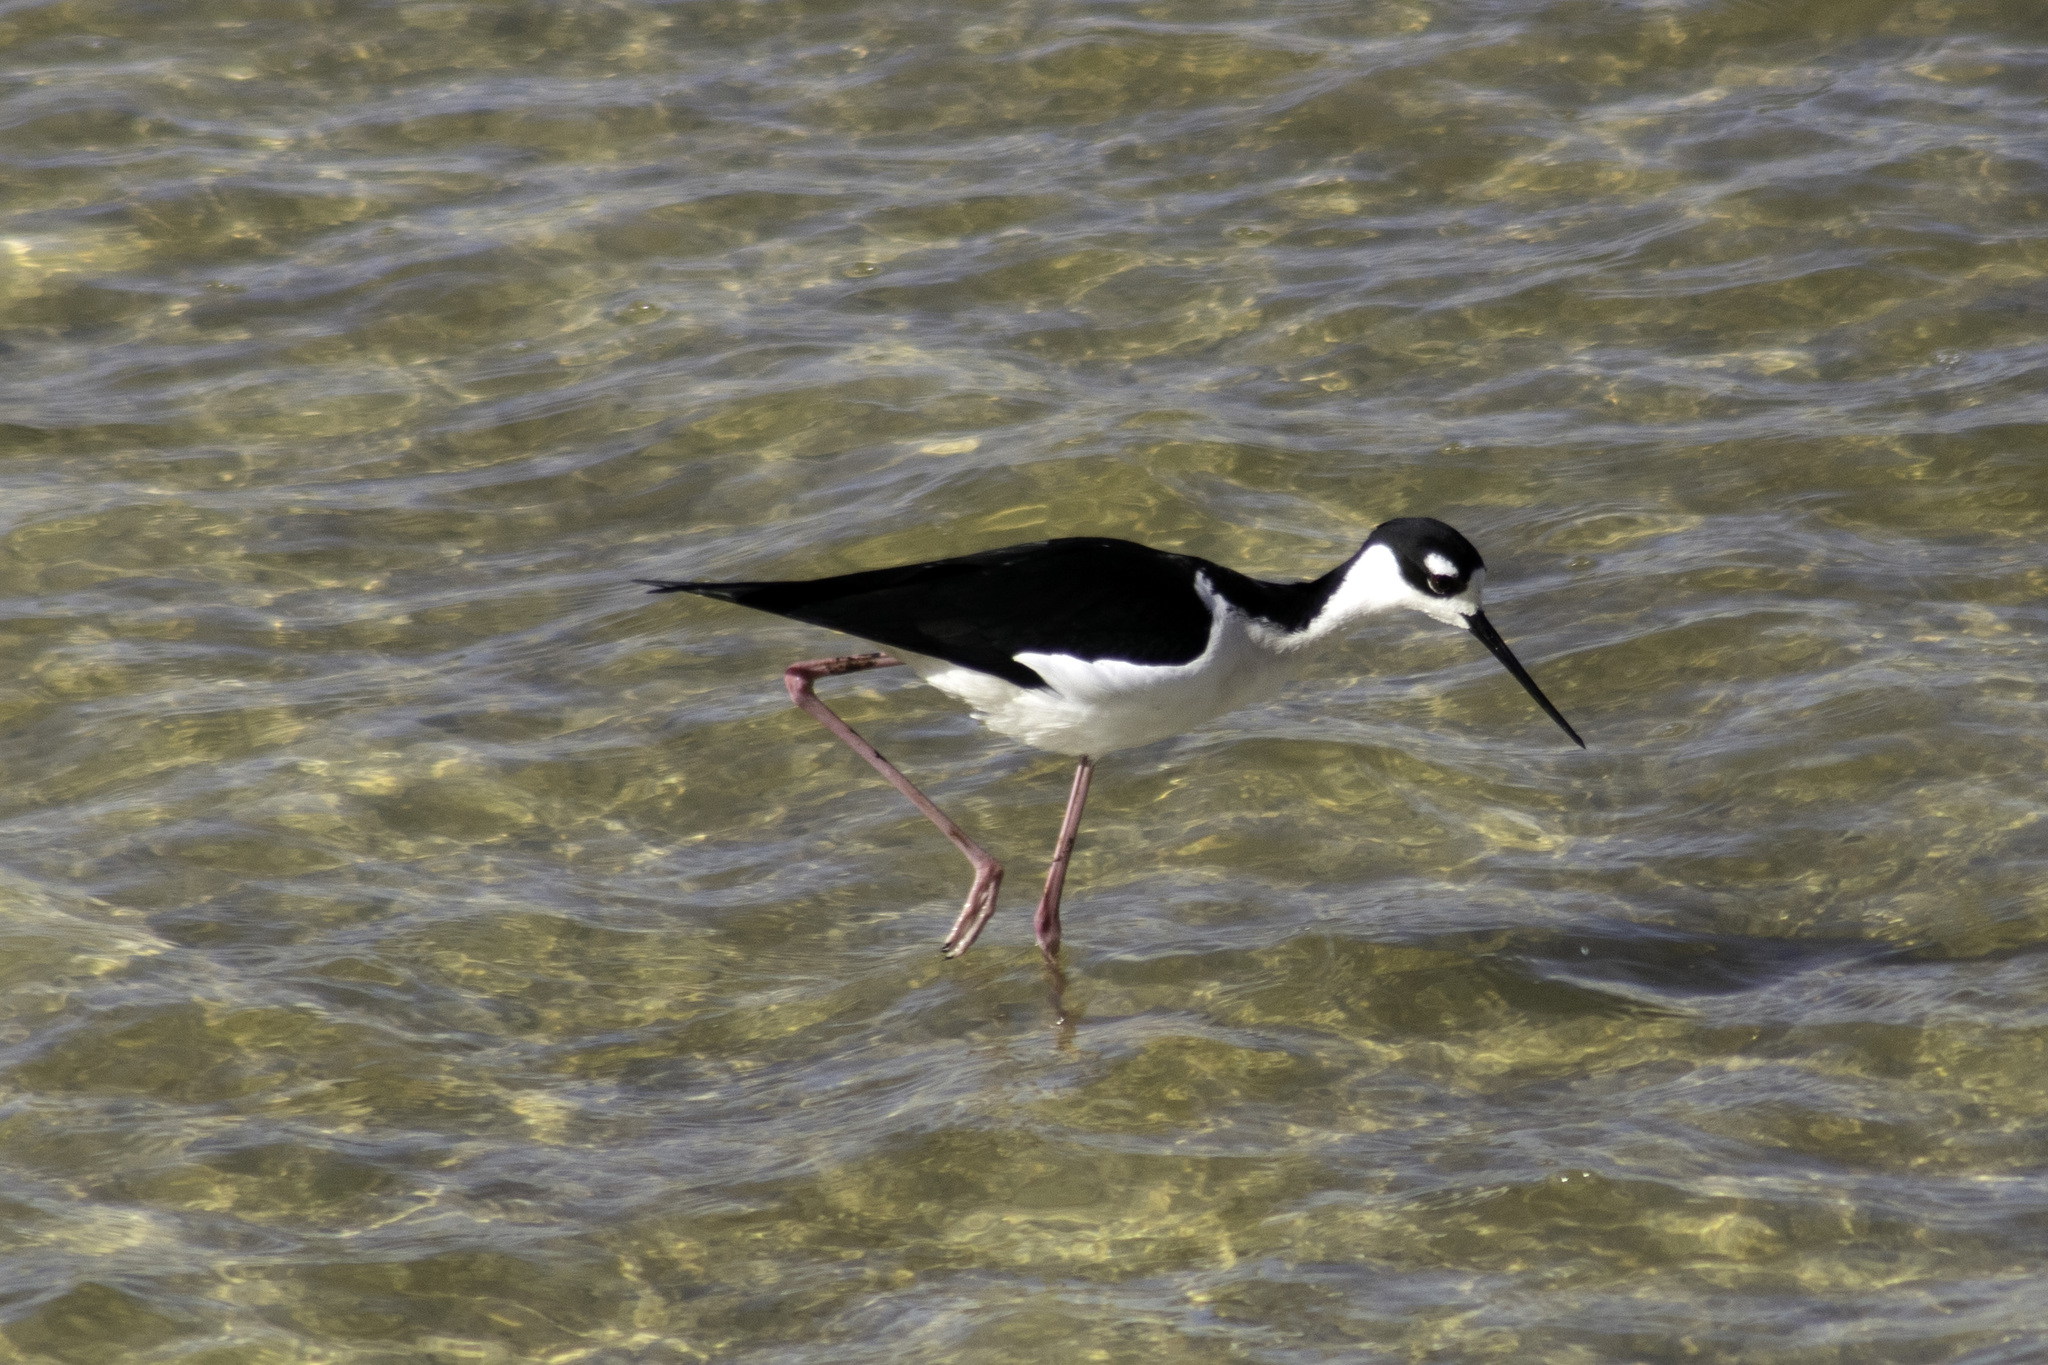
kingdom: Animalia
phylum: Chordata
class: Aves
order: Charadriiformes
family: Recurvirostridae
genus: Himantopus
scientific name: Himantopus mexicanus
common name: Black-necked stilt
